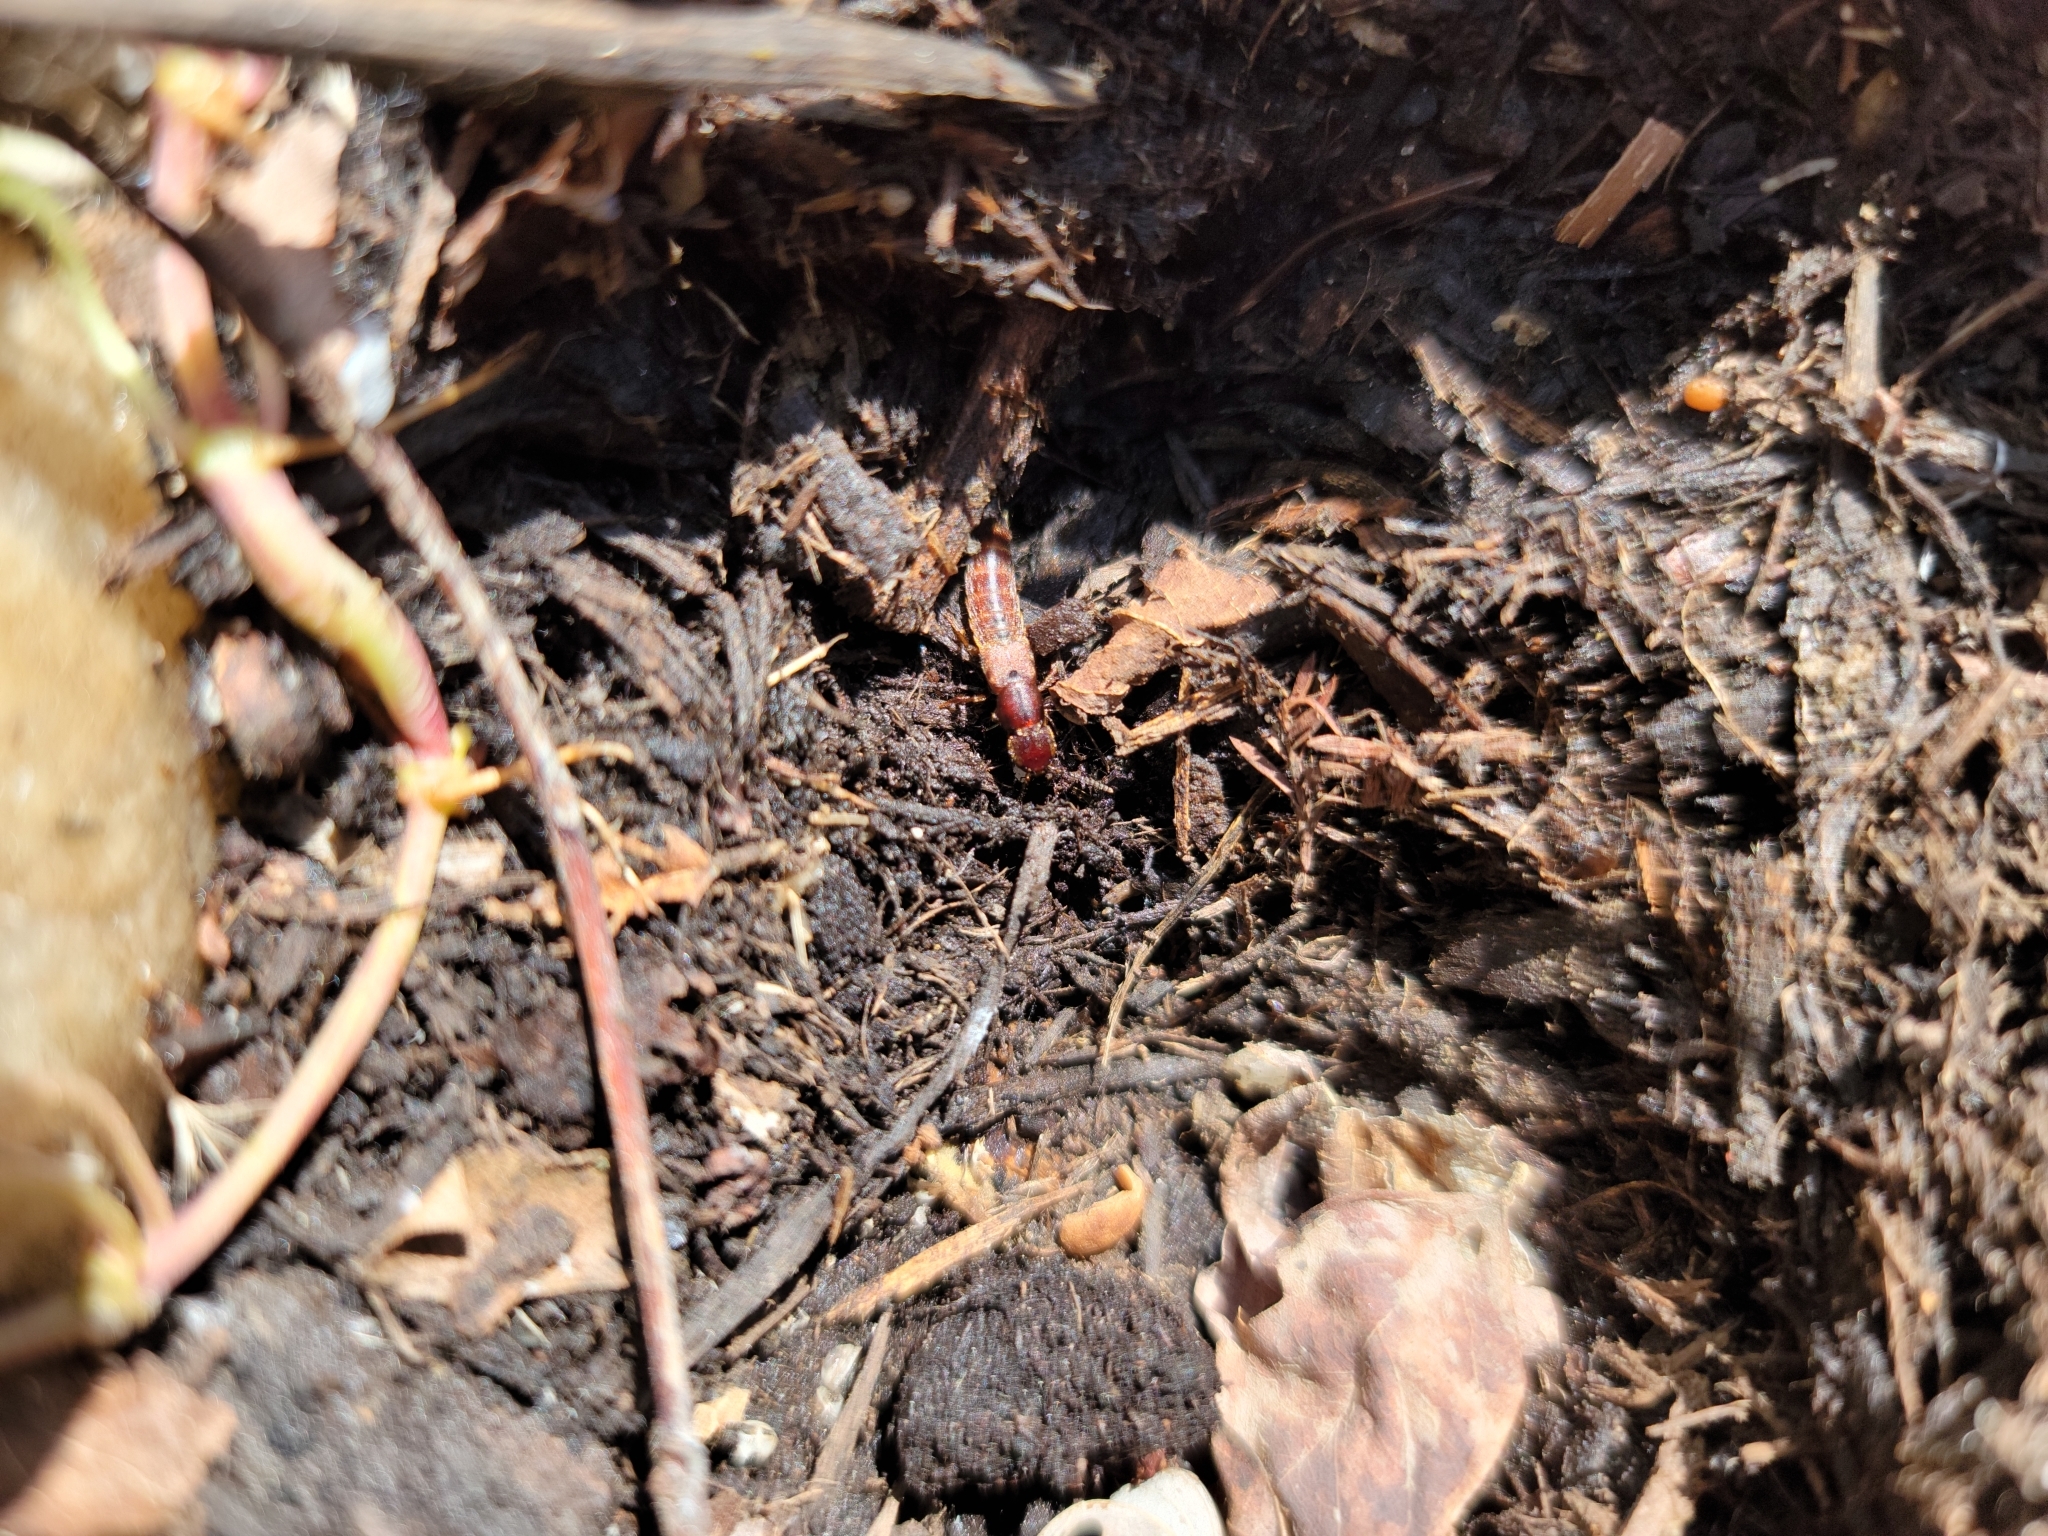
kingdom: Animalia
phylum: Arthropoda
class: Insecta
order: Coleoptera
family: Staphylinidae
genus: Platydracus
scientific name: Platydracus cinnamopterus
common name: Cinnamon rove beetle
